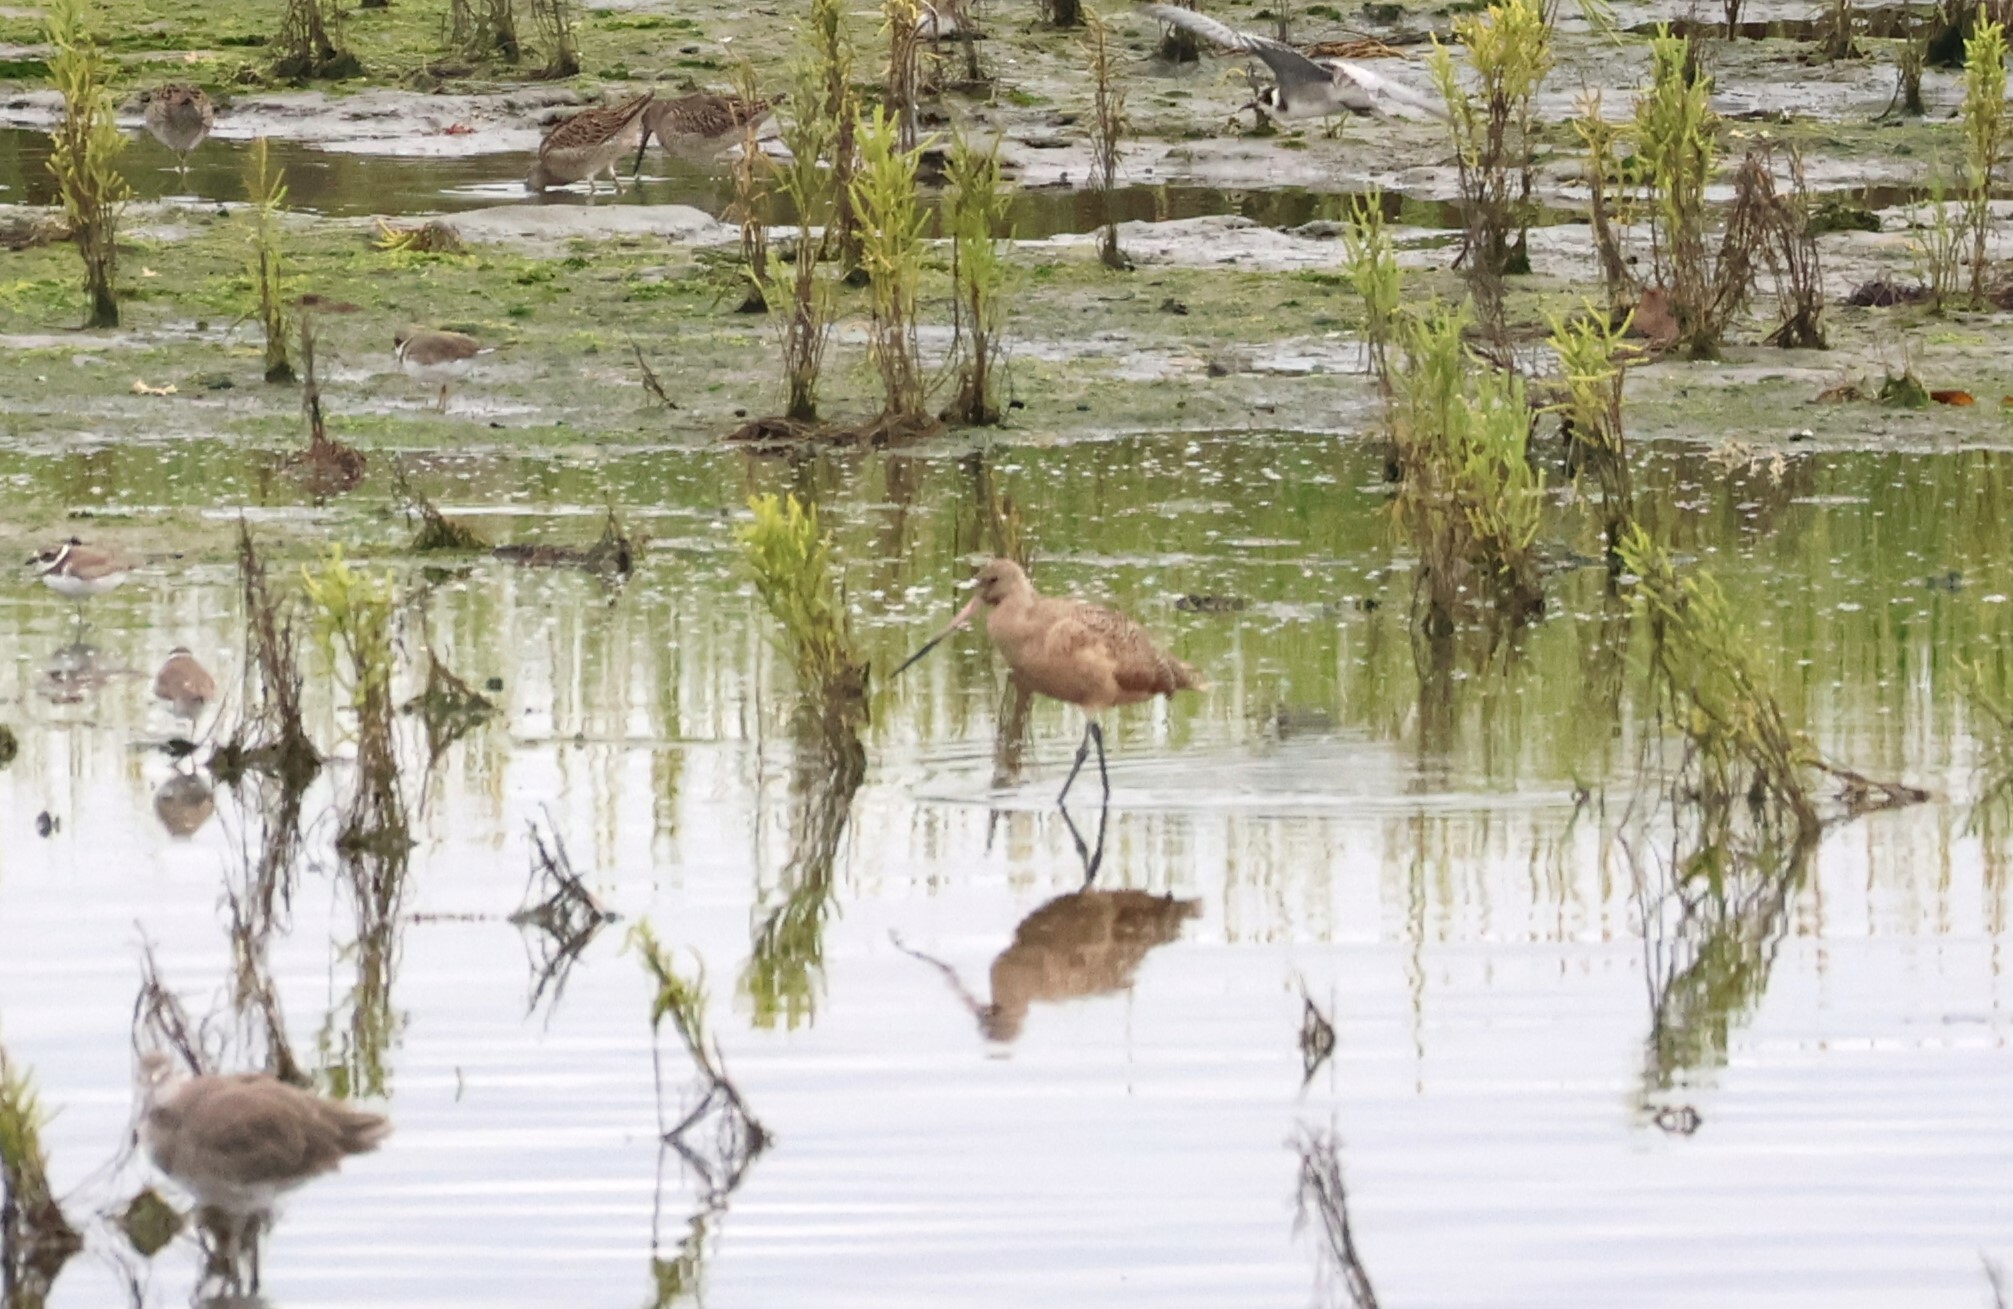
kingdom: Animalia
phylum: Chordata
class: Aves
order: Charadriiformes
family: Scolopacidae
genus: Limosa
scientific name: Limosa fedoa
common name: Marbled godwit
